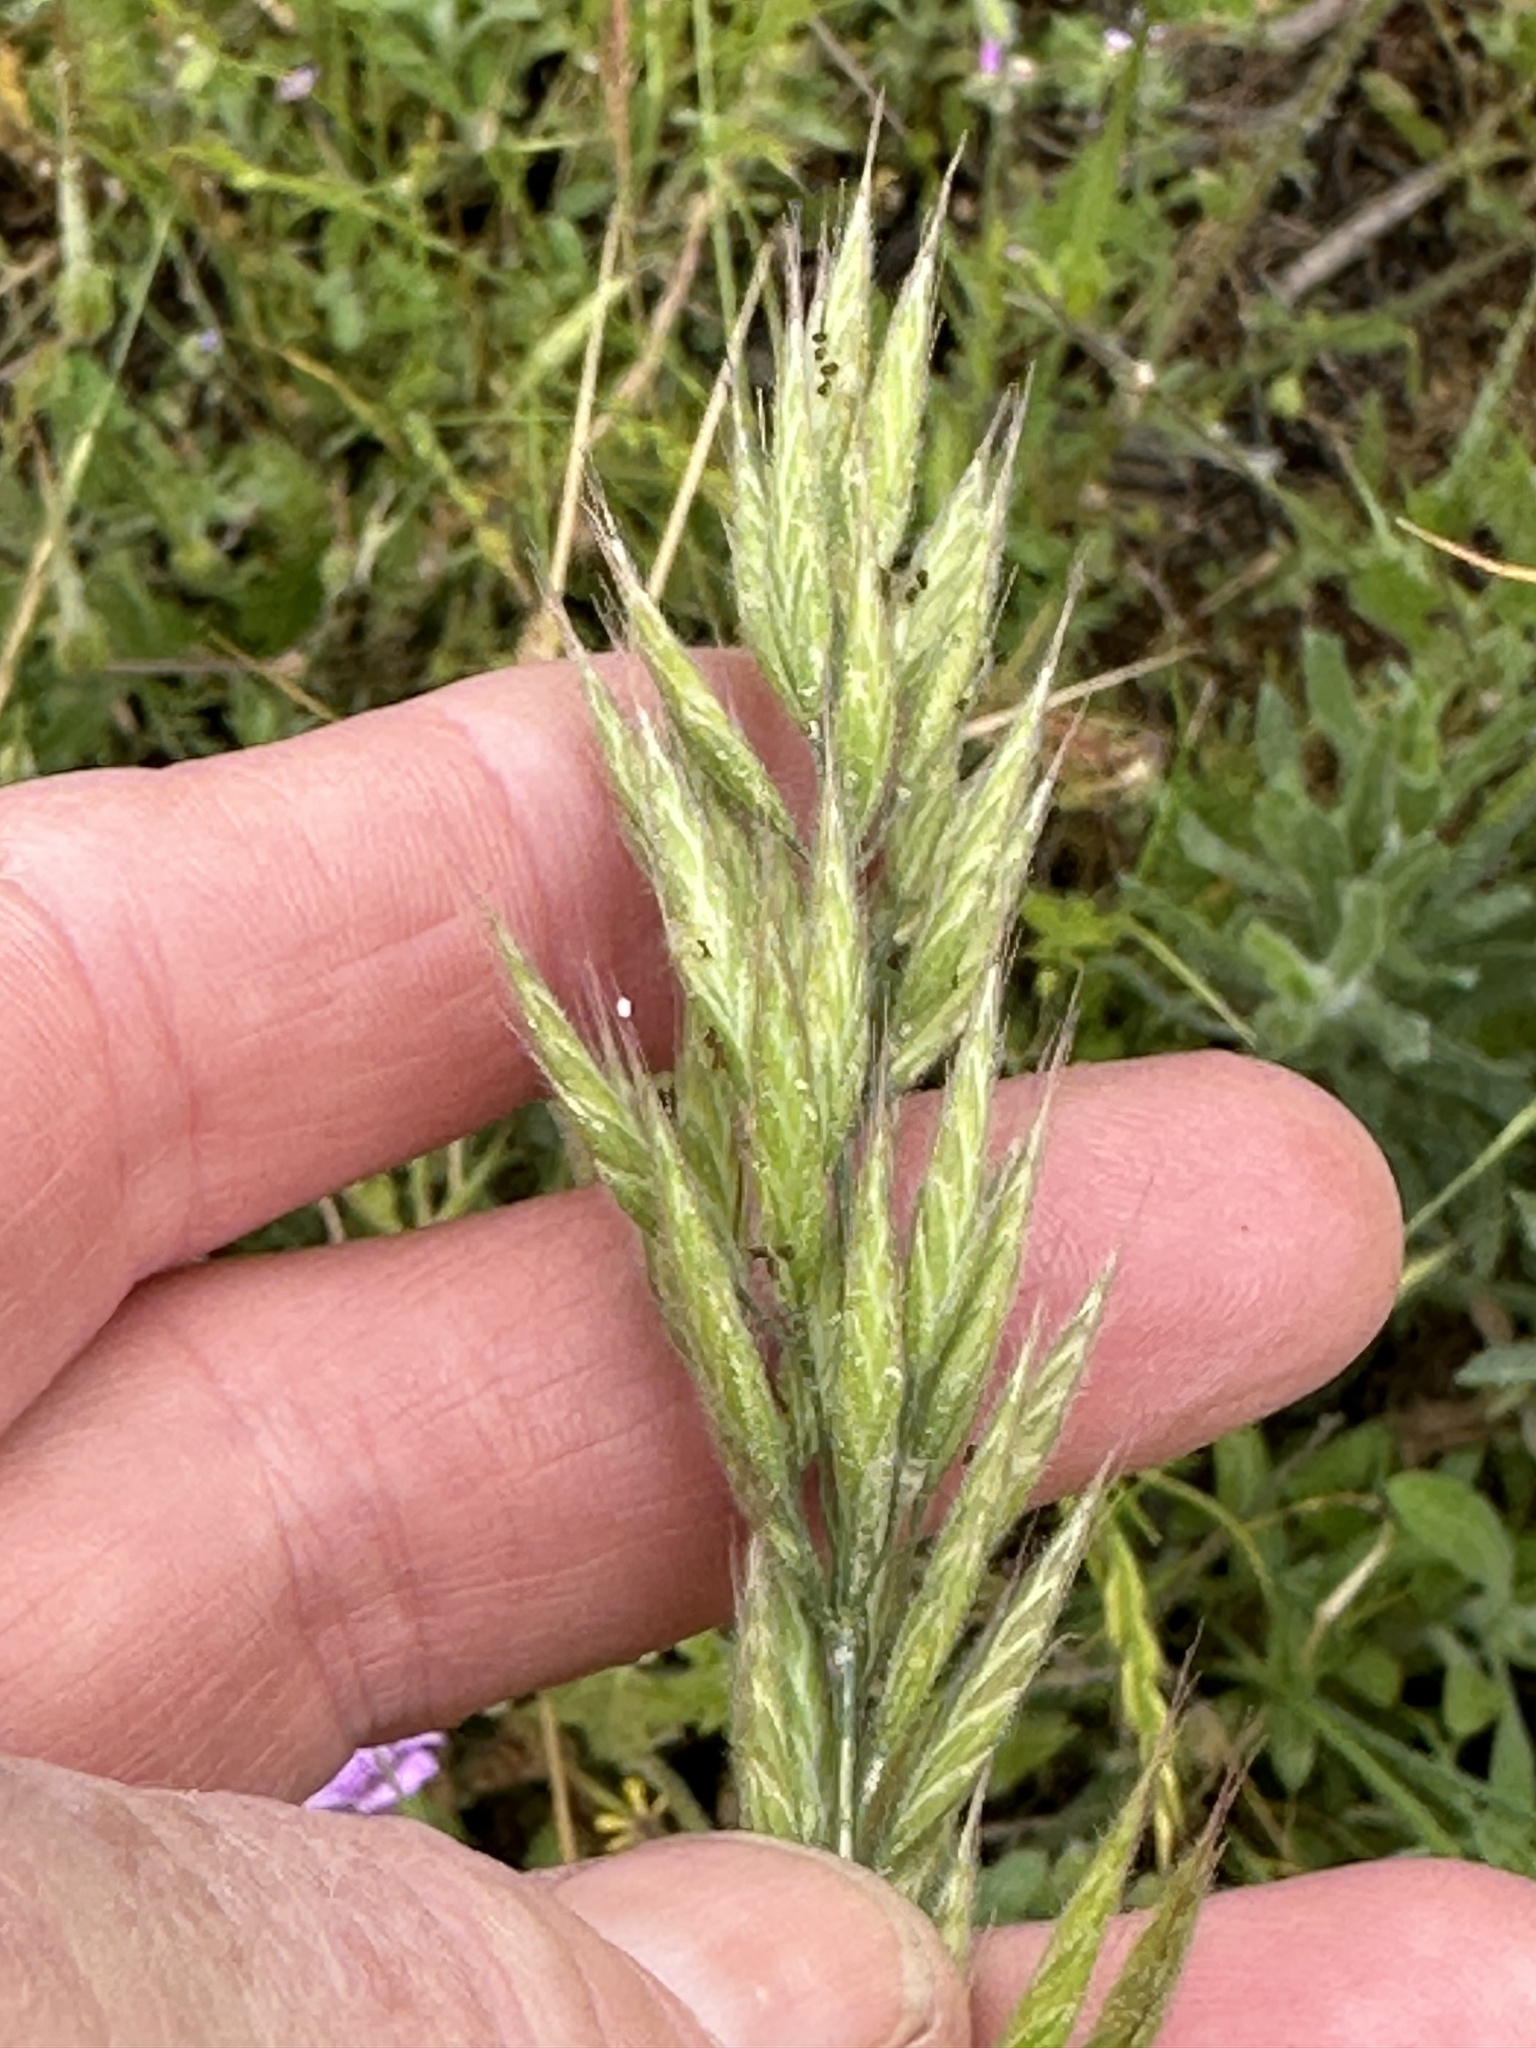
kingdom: Plantae
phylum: Tracheophyta
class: Liliopsida
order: Poales
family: Poaceae
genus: Bromus
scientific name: Bromus hordeaceus
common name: Soft brome
